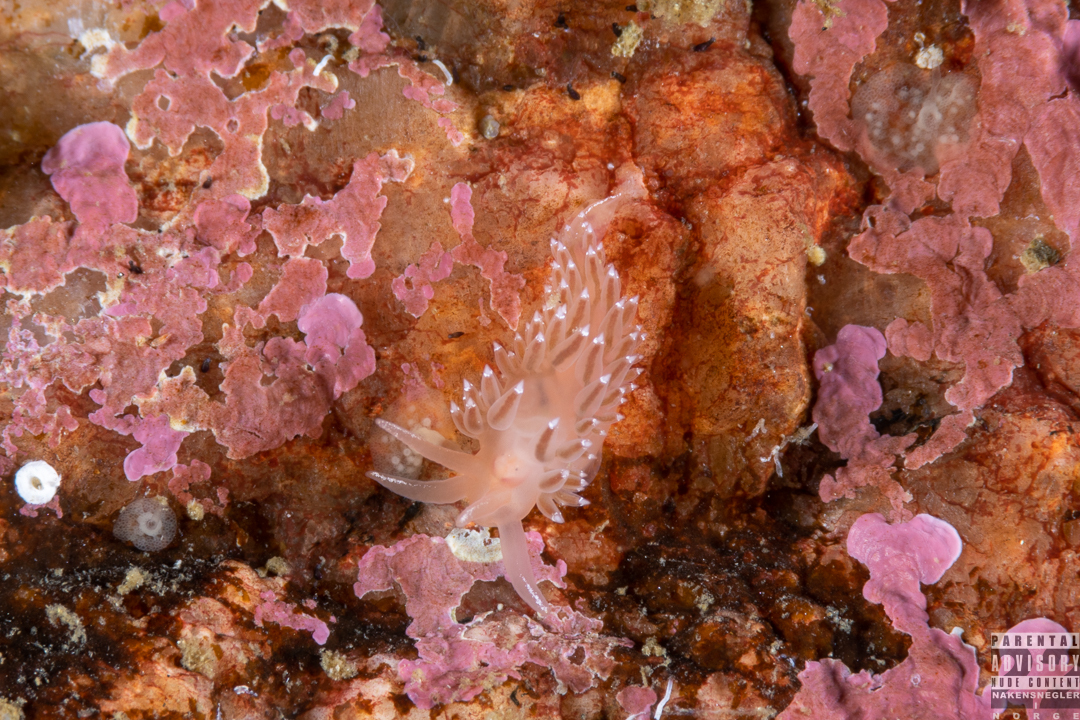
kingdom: Animalia
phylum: Mollusca
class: Gastropoda
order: Nudibranchia
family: Coryphellidae
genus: Coryphella
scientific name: Coryphella verrucosa
